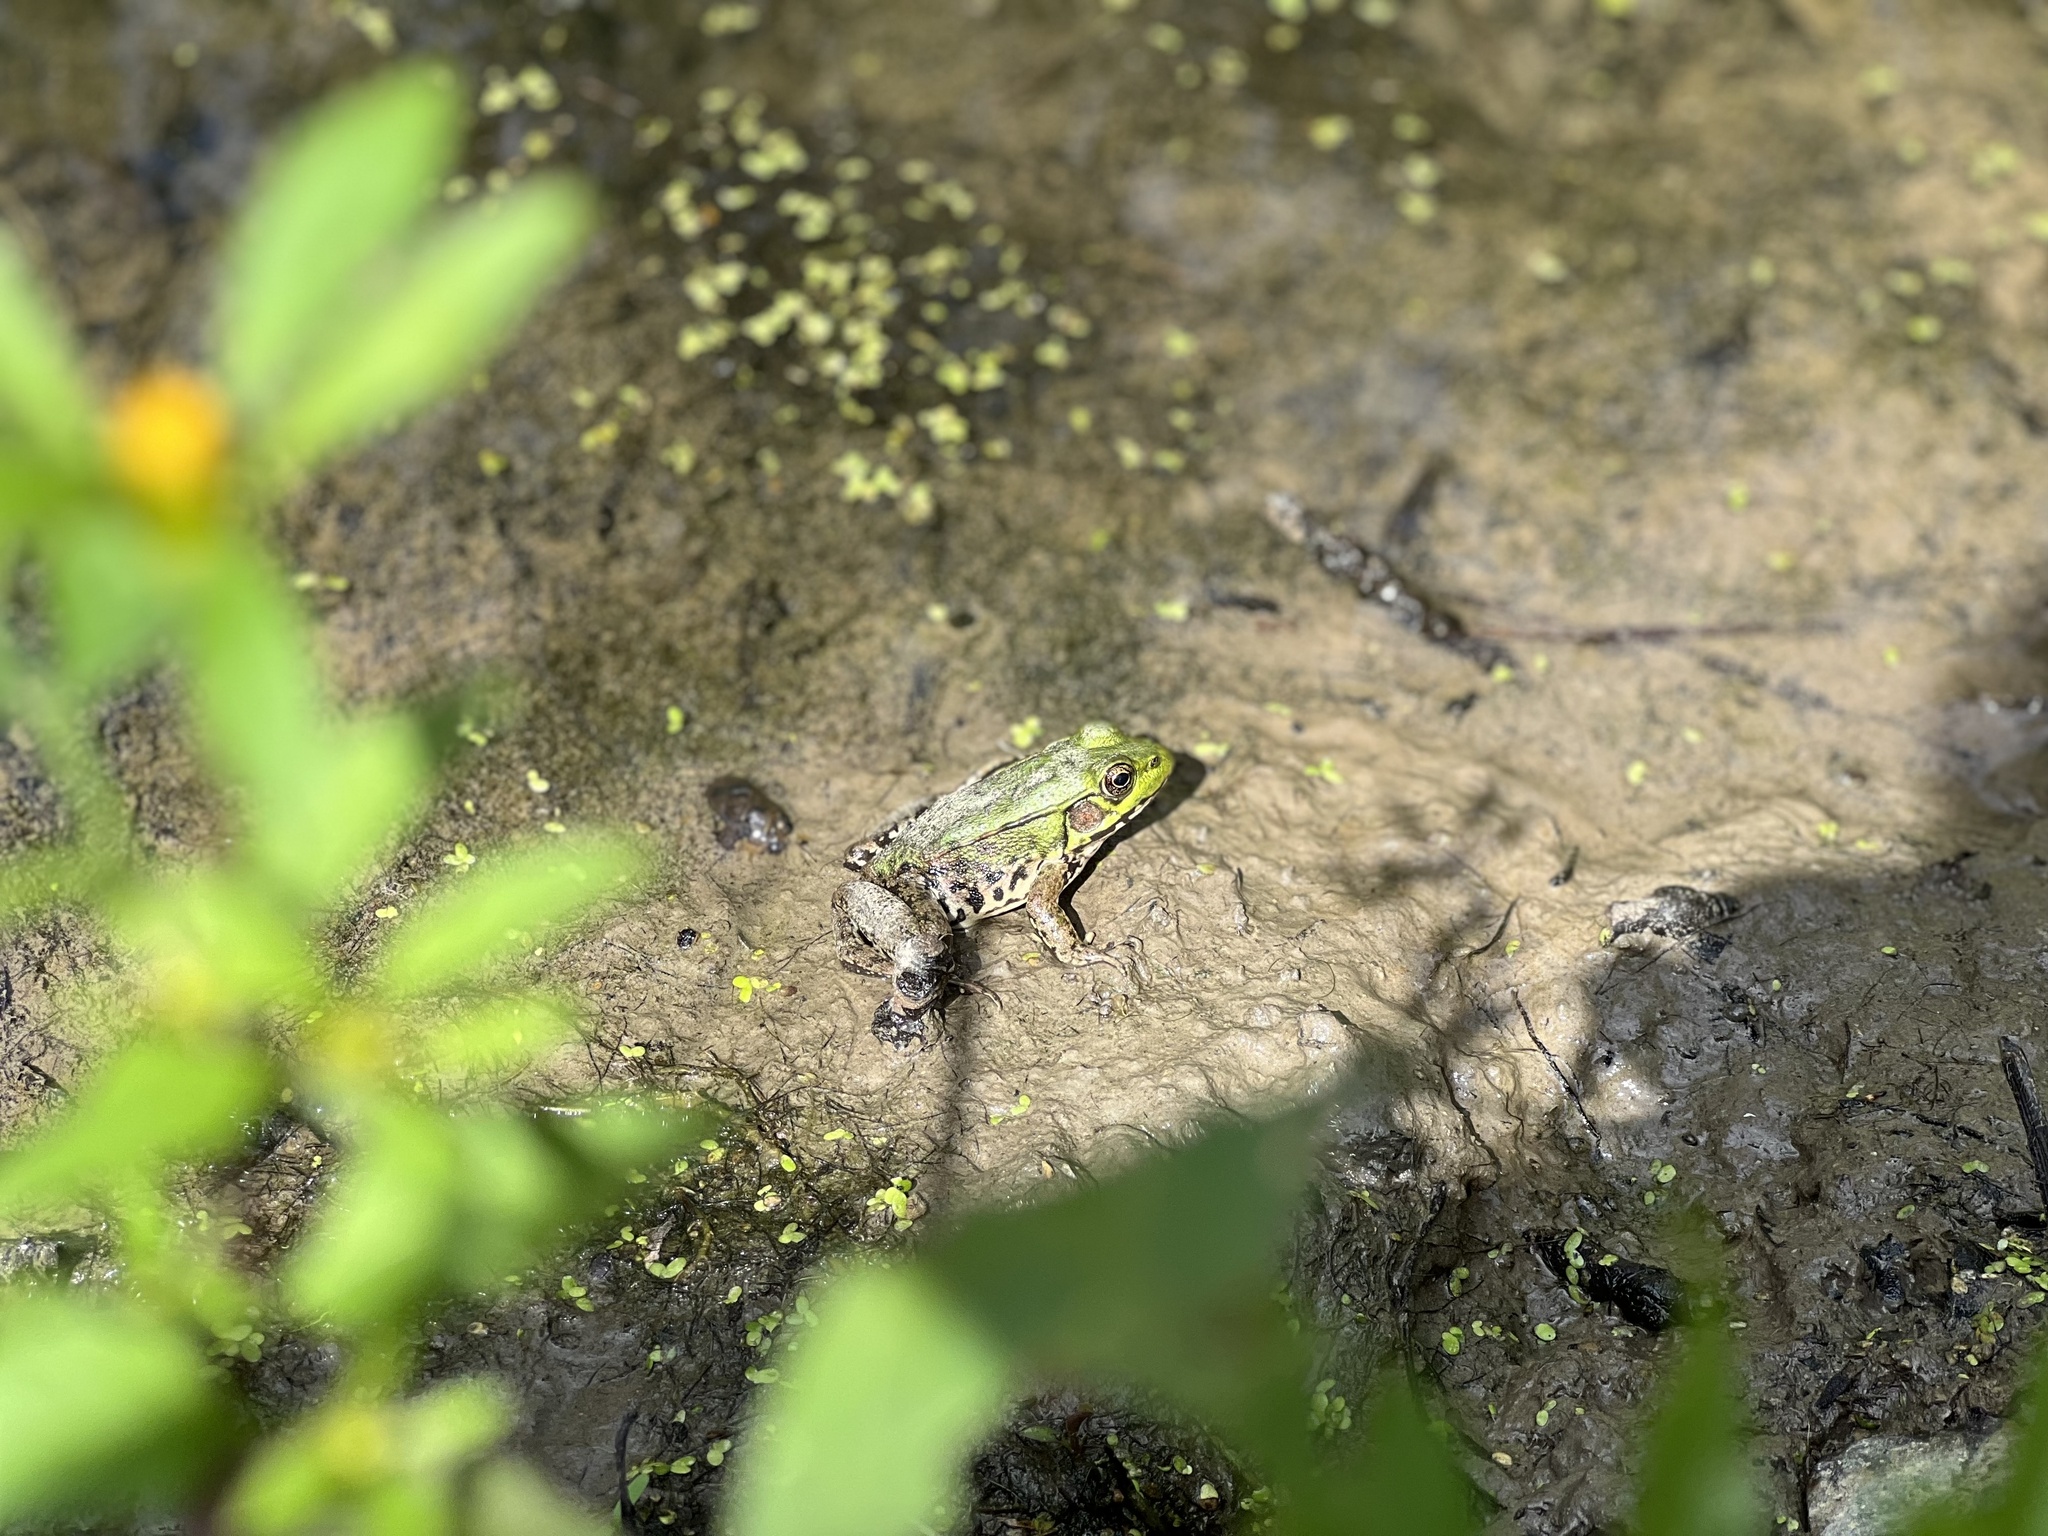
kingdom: Animalia
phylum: Chordata
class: Amphibia
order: Anura
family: Ranidae
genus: Lithobates
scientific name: Lithobates clamitans
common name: Green frog
